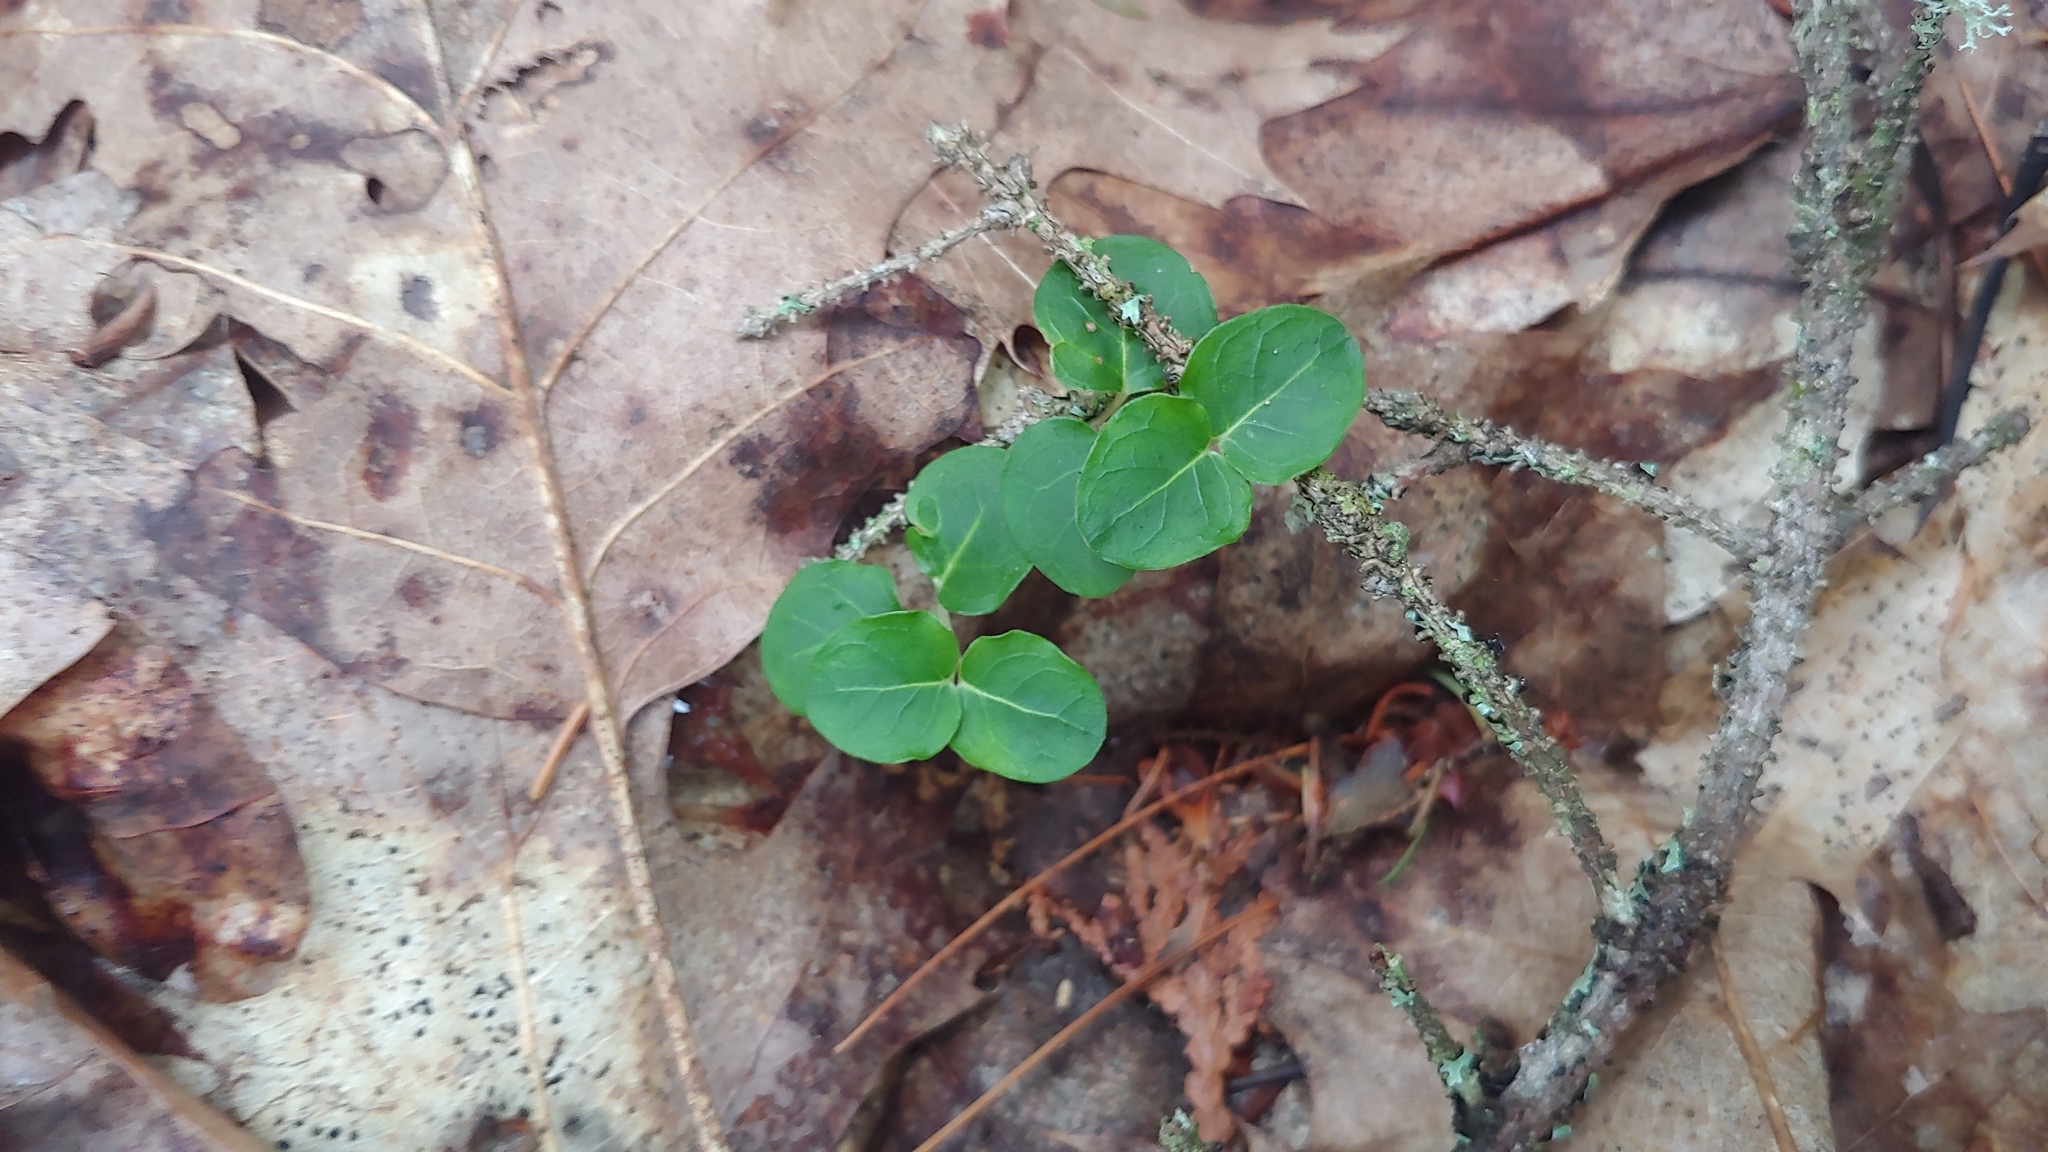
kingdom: Plantae
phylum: Tracheophyta
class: Magnoliopsida
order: Gentianales
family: Rubiaceae
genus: Mitchella
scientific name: Mitchella repens
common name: Partridge-berry
